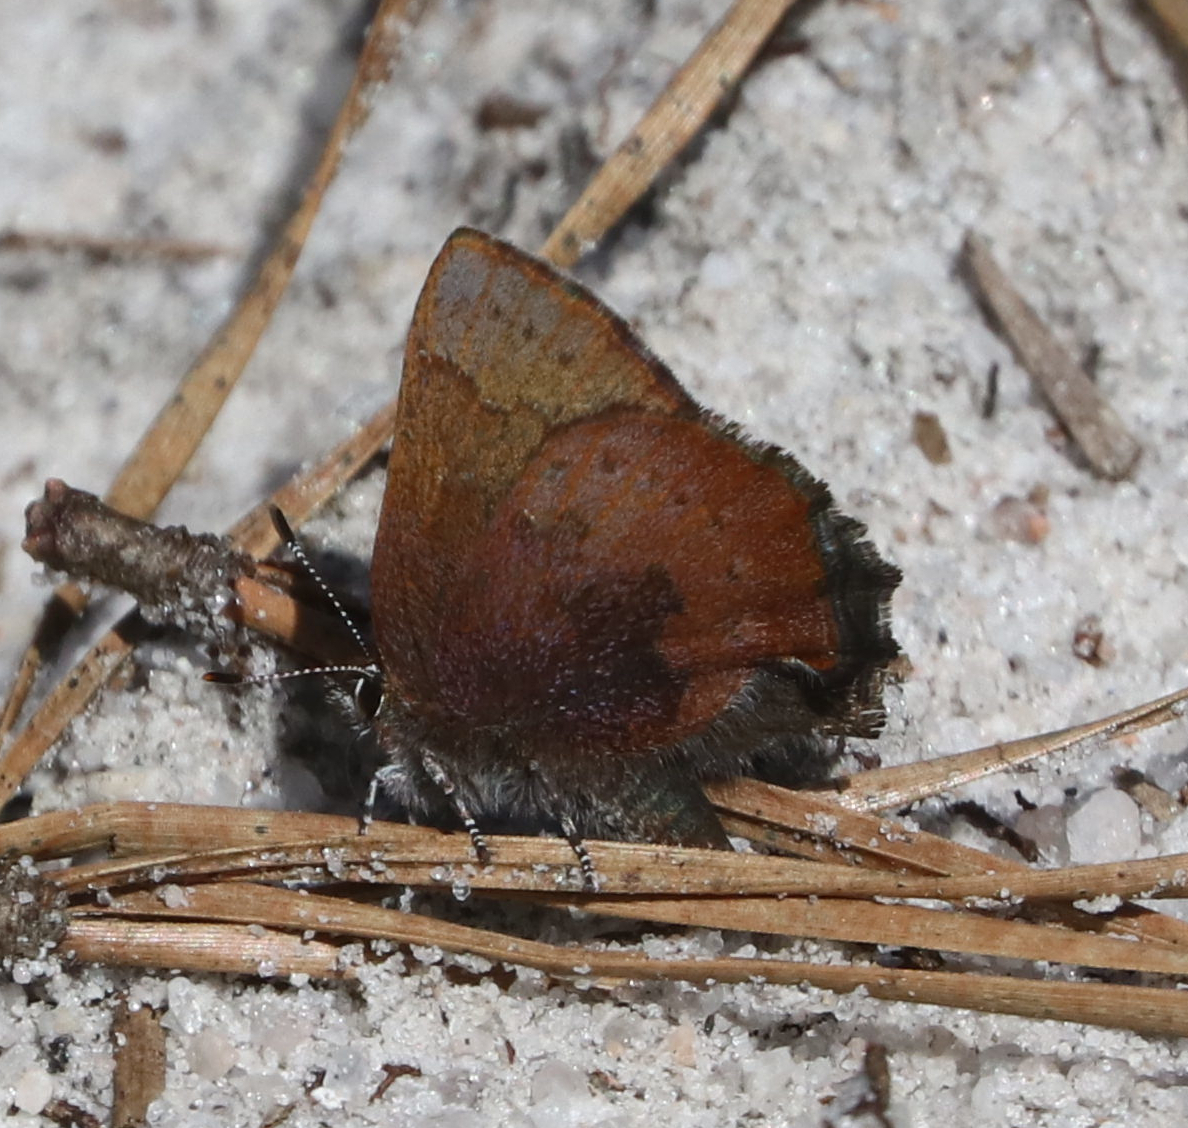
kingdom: Animalia
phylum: Arthropoda
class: Insecta
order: Lepidoptera
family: Lycaenidae
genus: Incisalia
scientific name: Incisalia irioides
